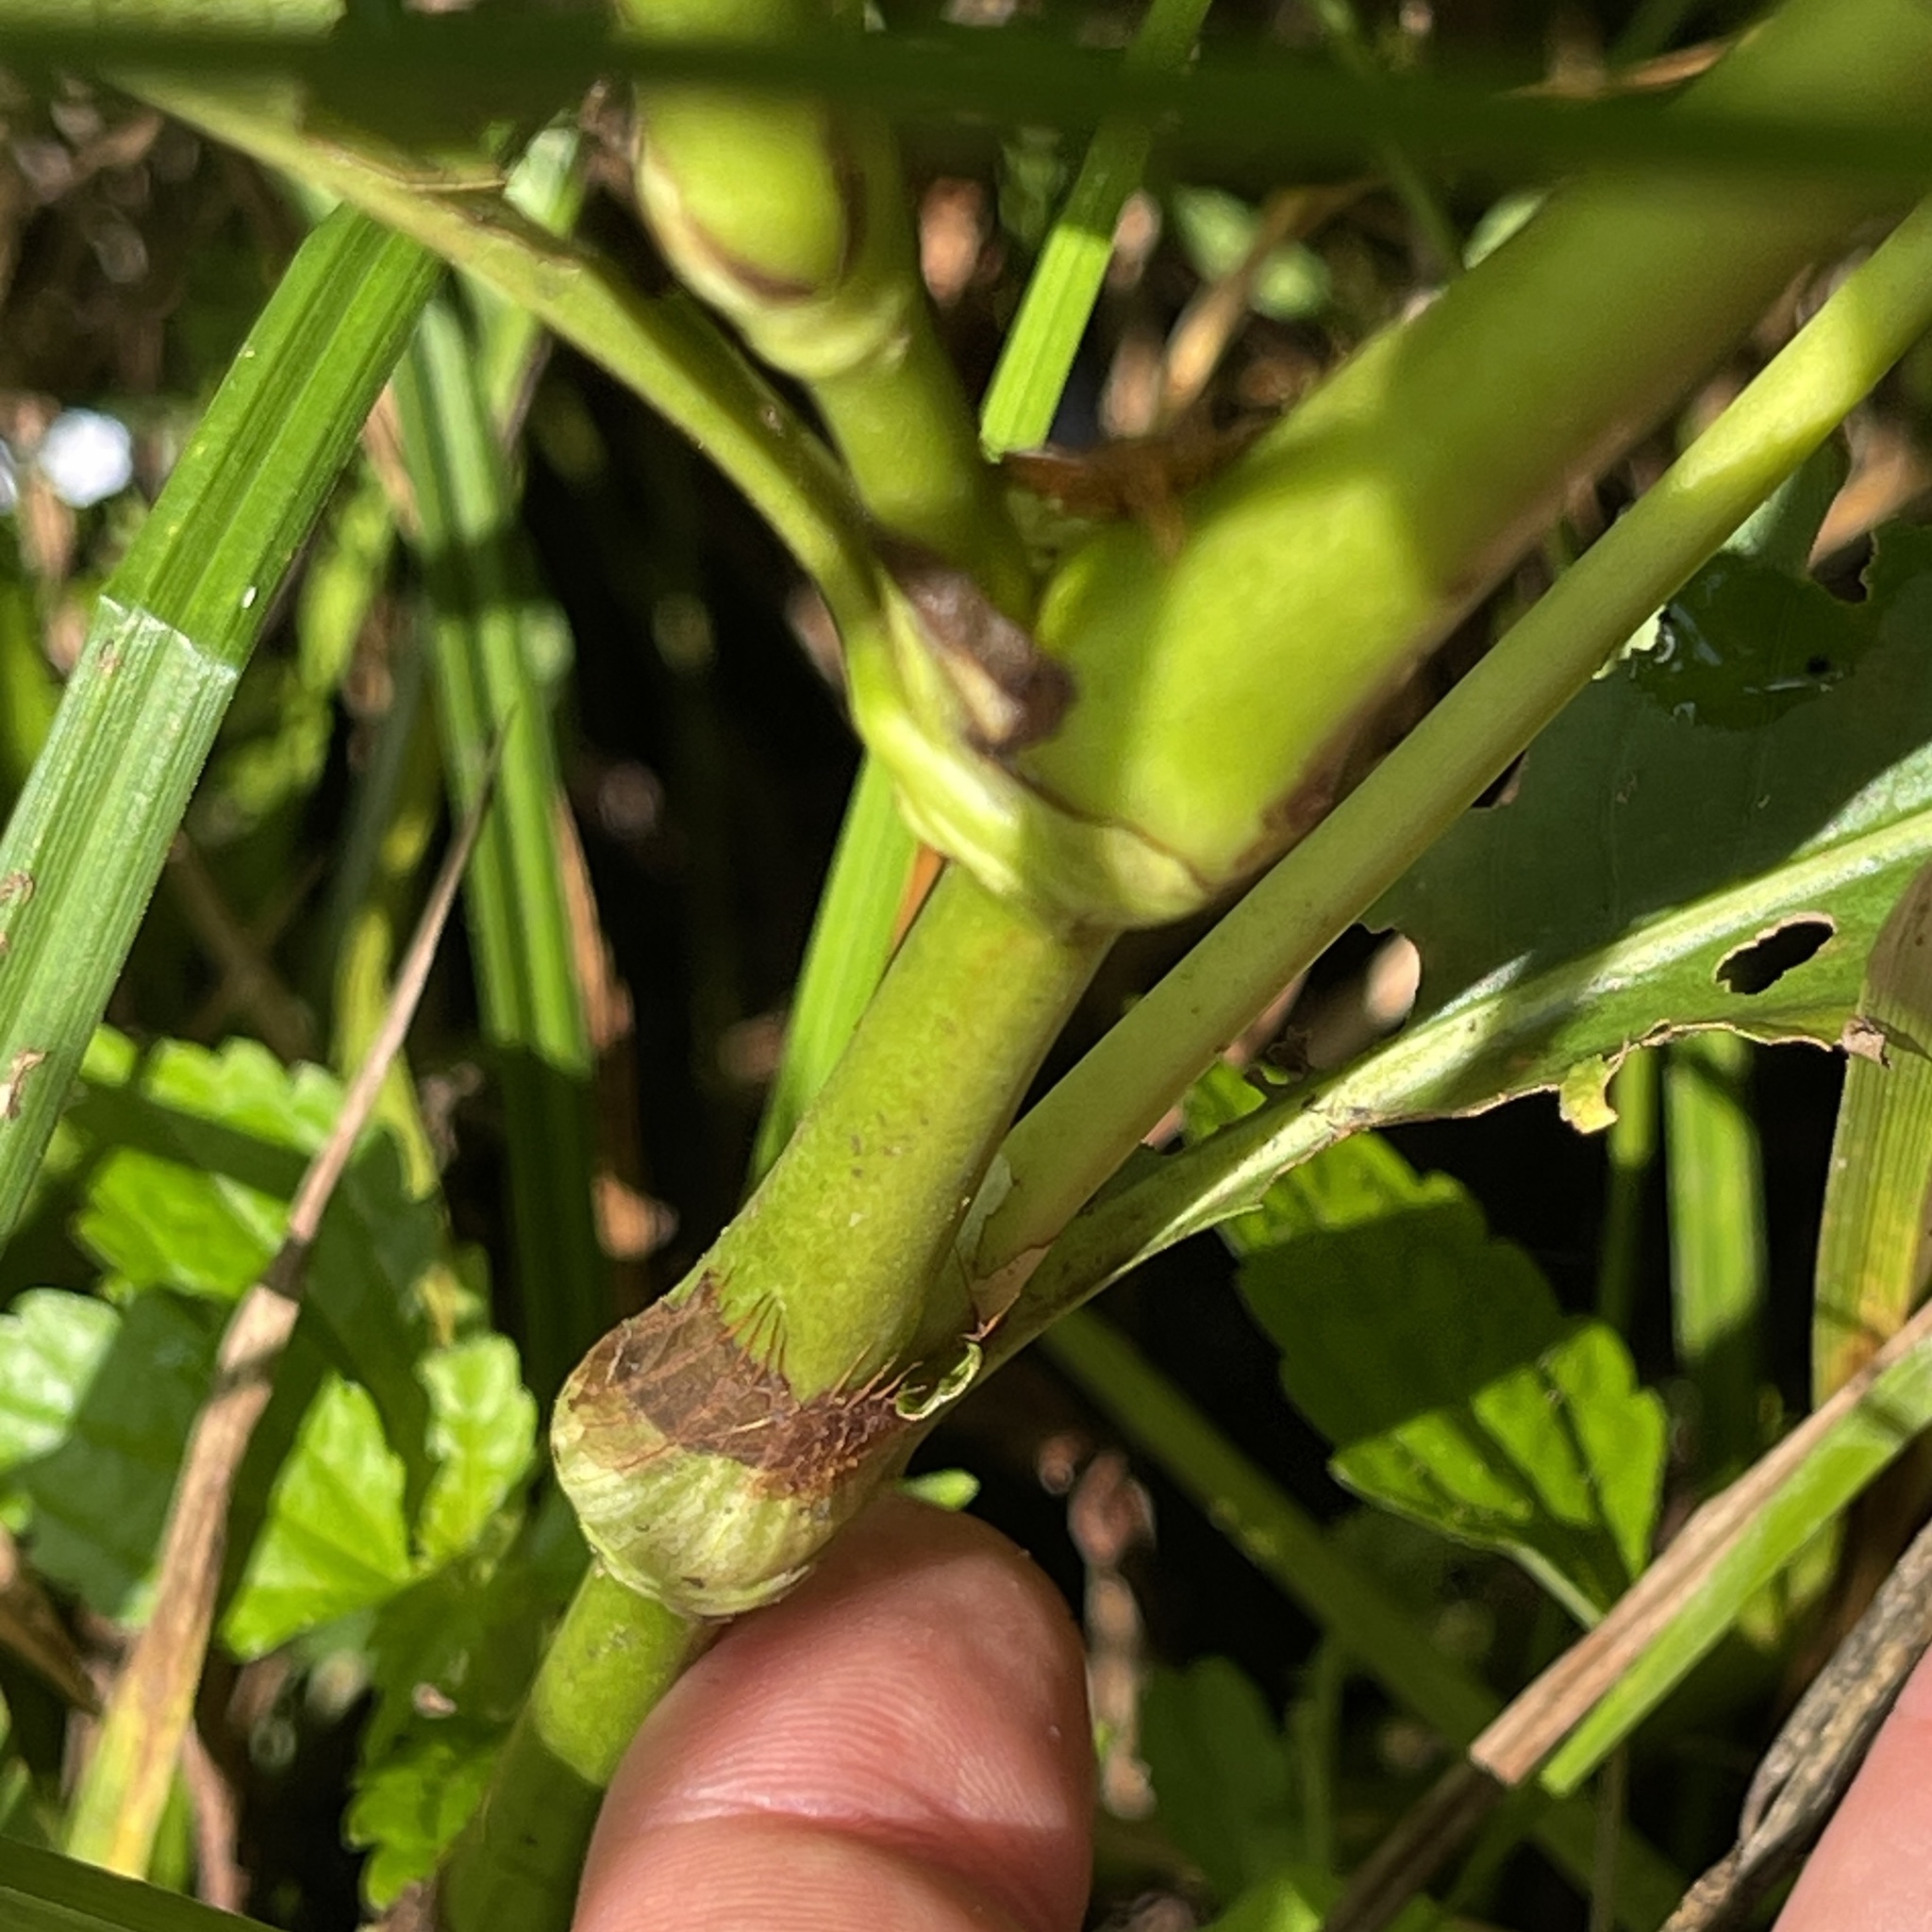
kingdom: Plantae
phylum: Tracheophyta
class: Magnoliopsida
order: Caryophyllales
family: Polygonaceae
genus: Persicaria
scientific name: Persicaria robustior
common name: Stout smartweed
